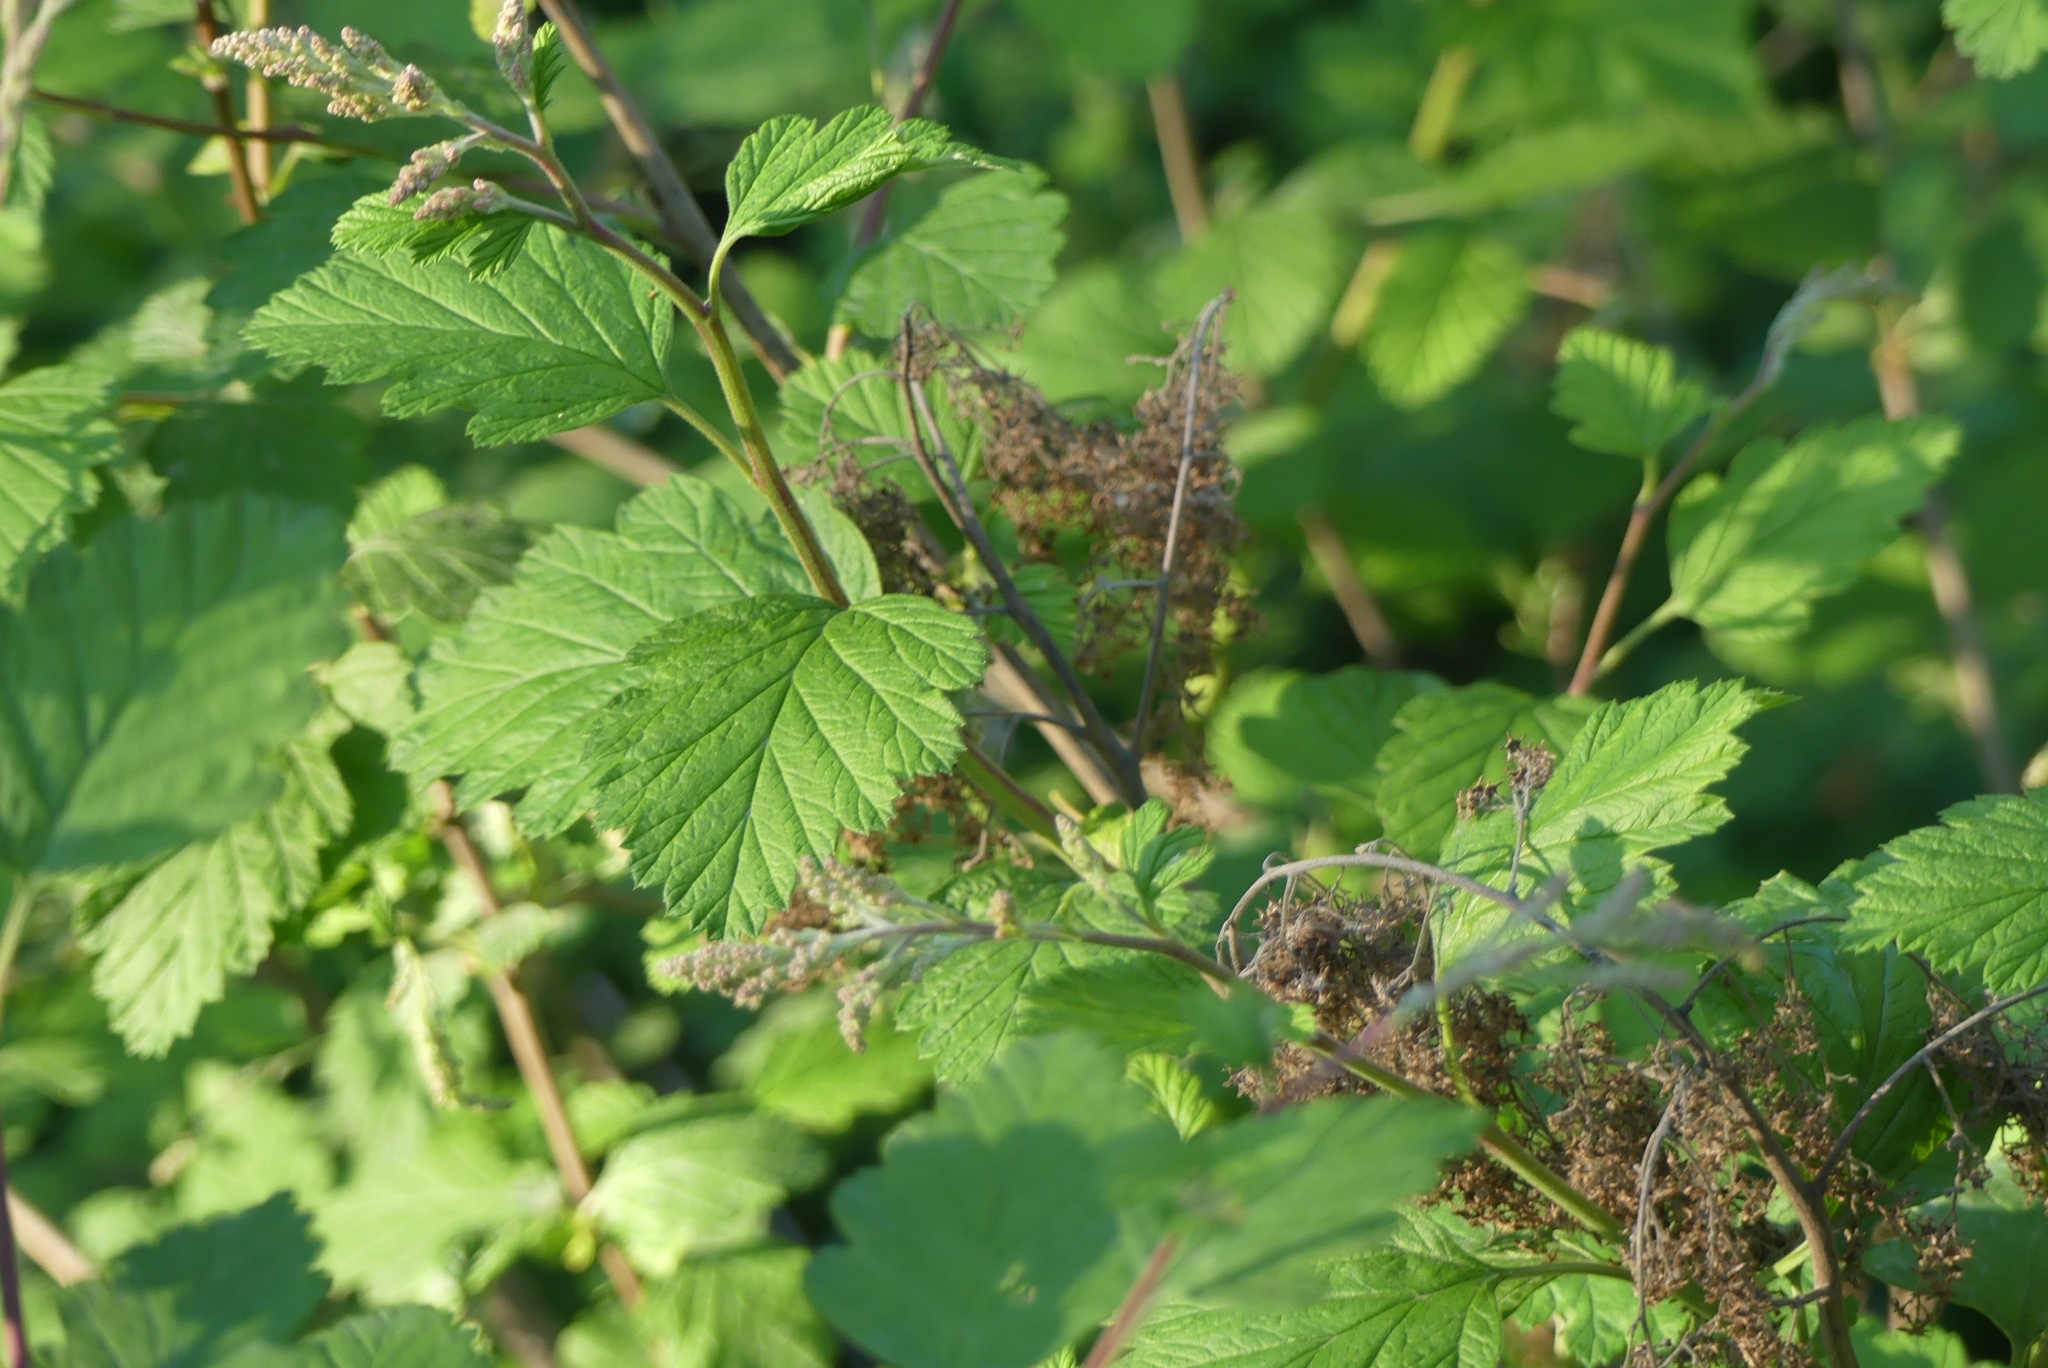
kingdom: Plantae
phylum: Tracheophyta
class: Magnoliopsida
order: Rosales
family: Rosaceae
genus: Holodiscus
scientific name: Holodiscus discolor
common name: Oceanspray
